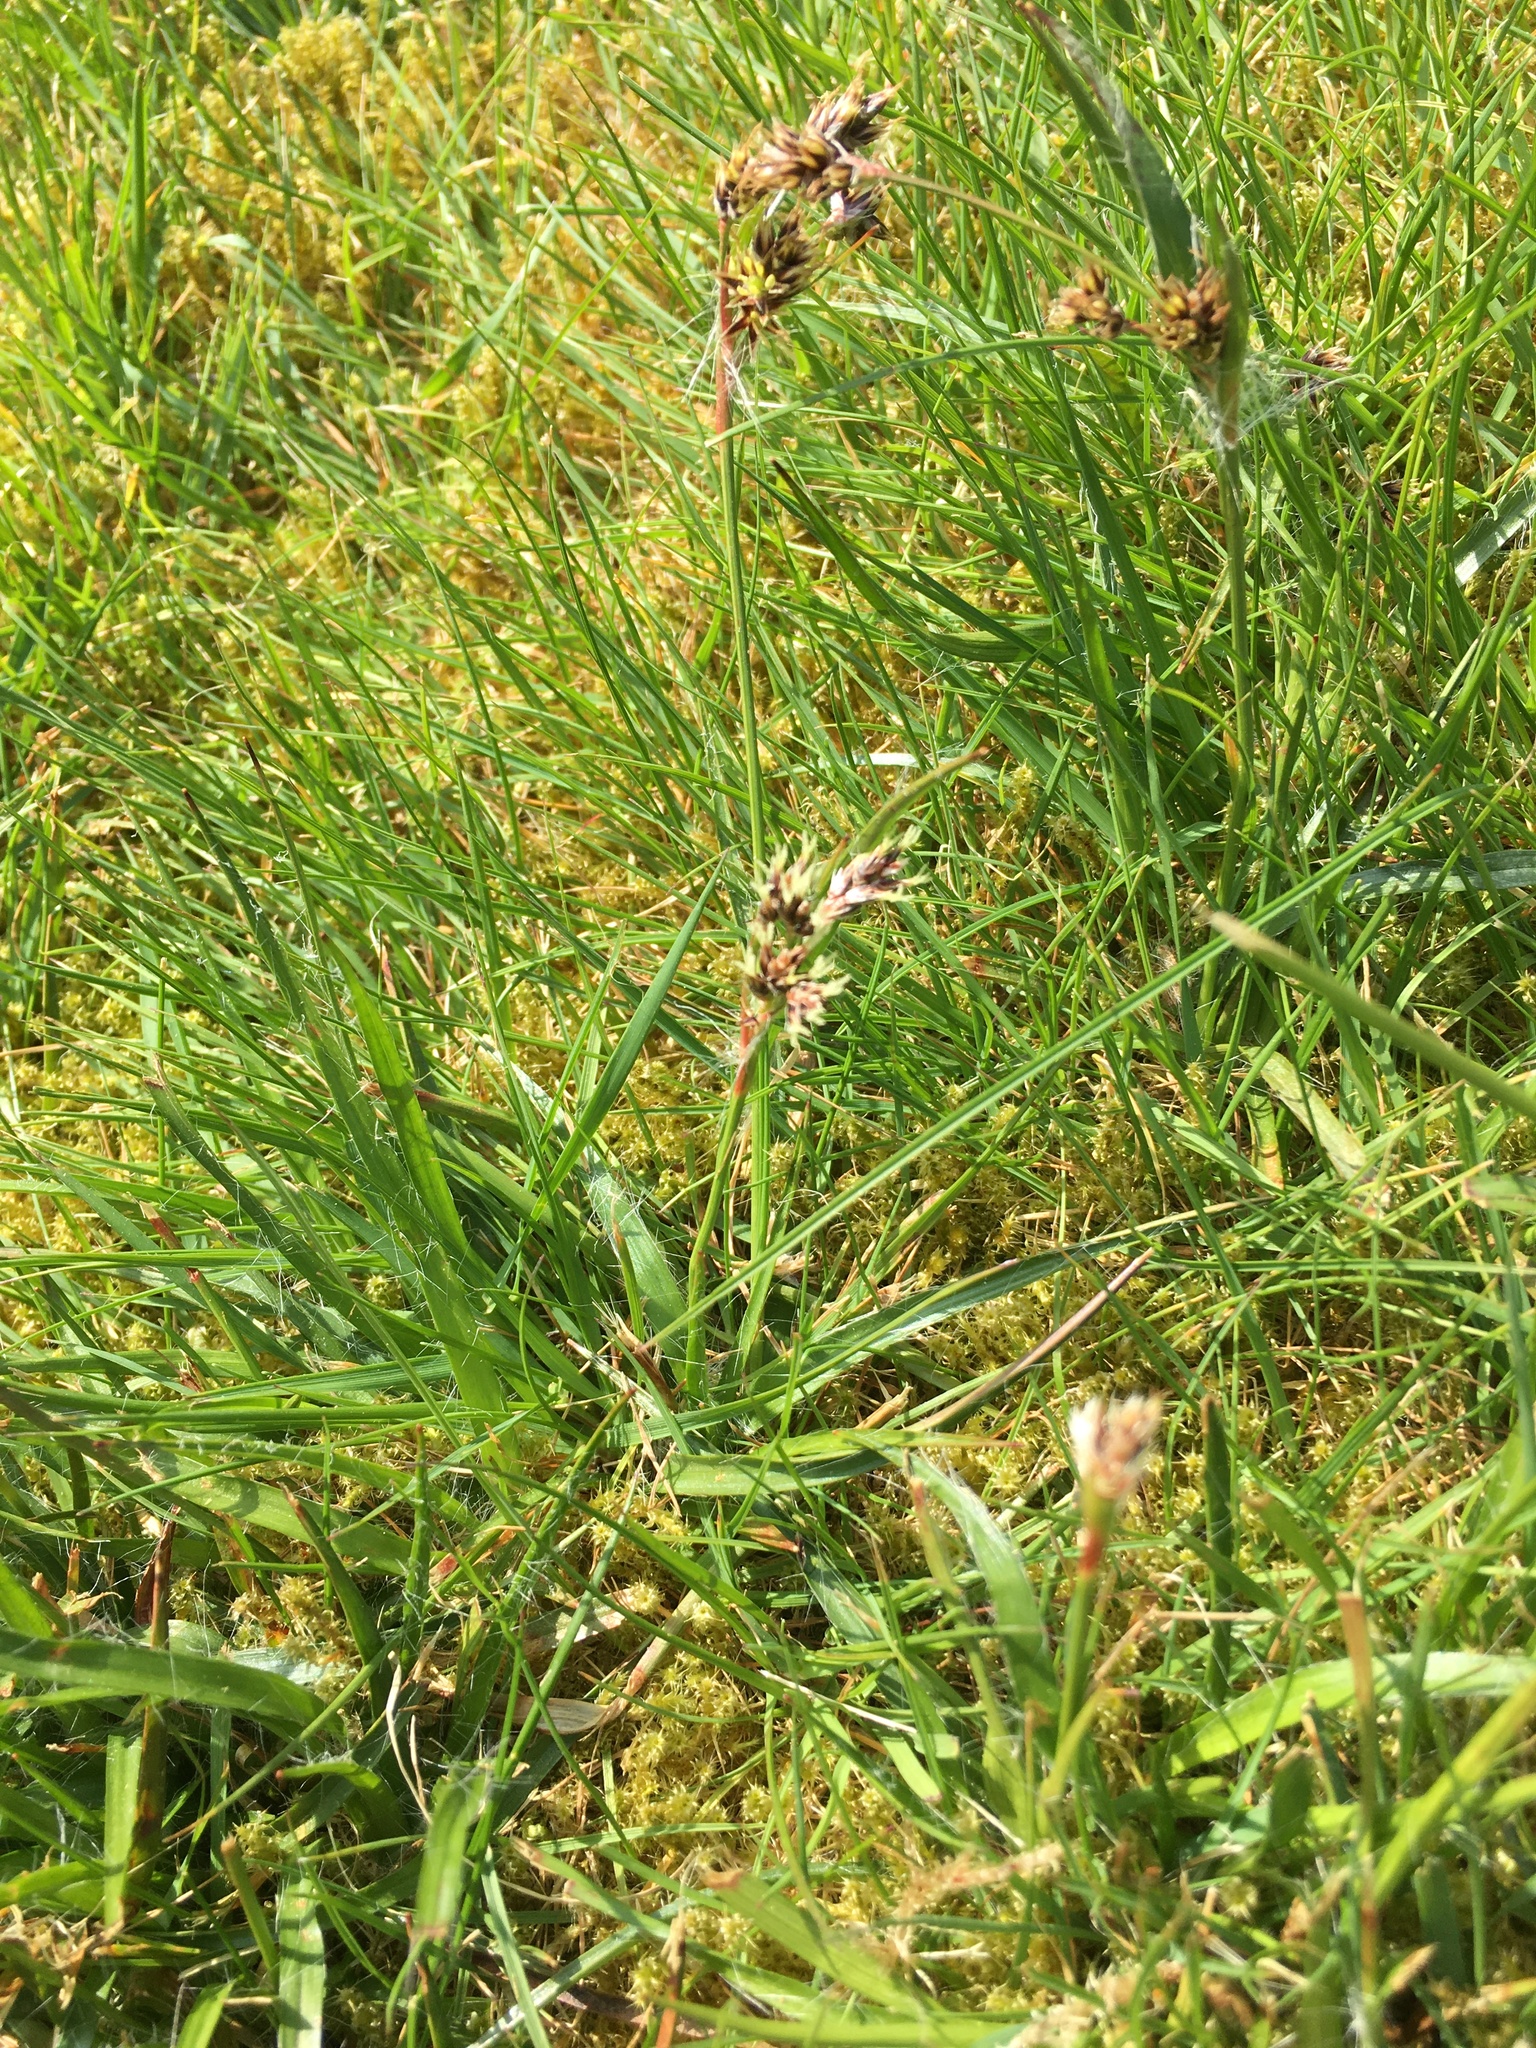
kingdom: Plantae
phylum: Tracheophyta
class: Liliopsida
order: Poales
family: Juncaceae
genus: Luzula
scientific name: Luzula campestris
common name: Field wood-rush
